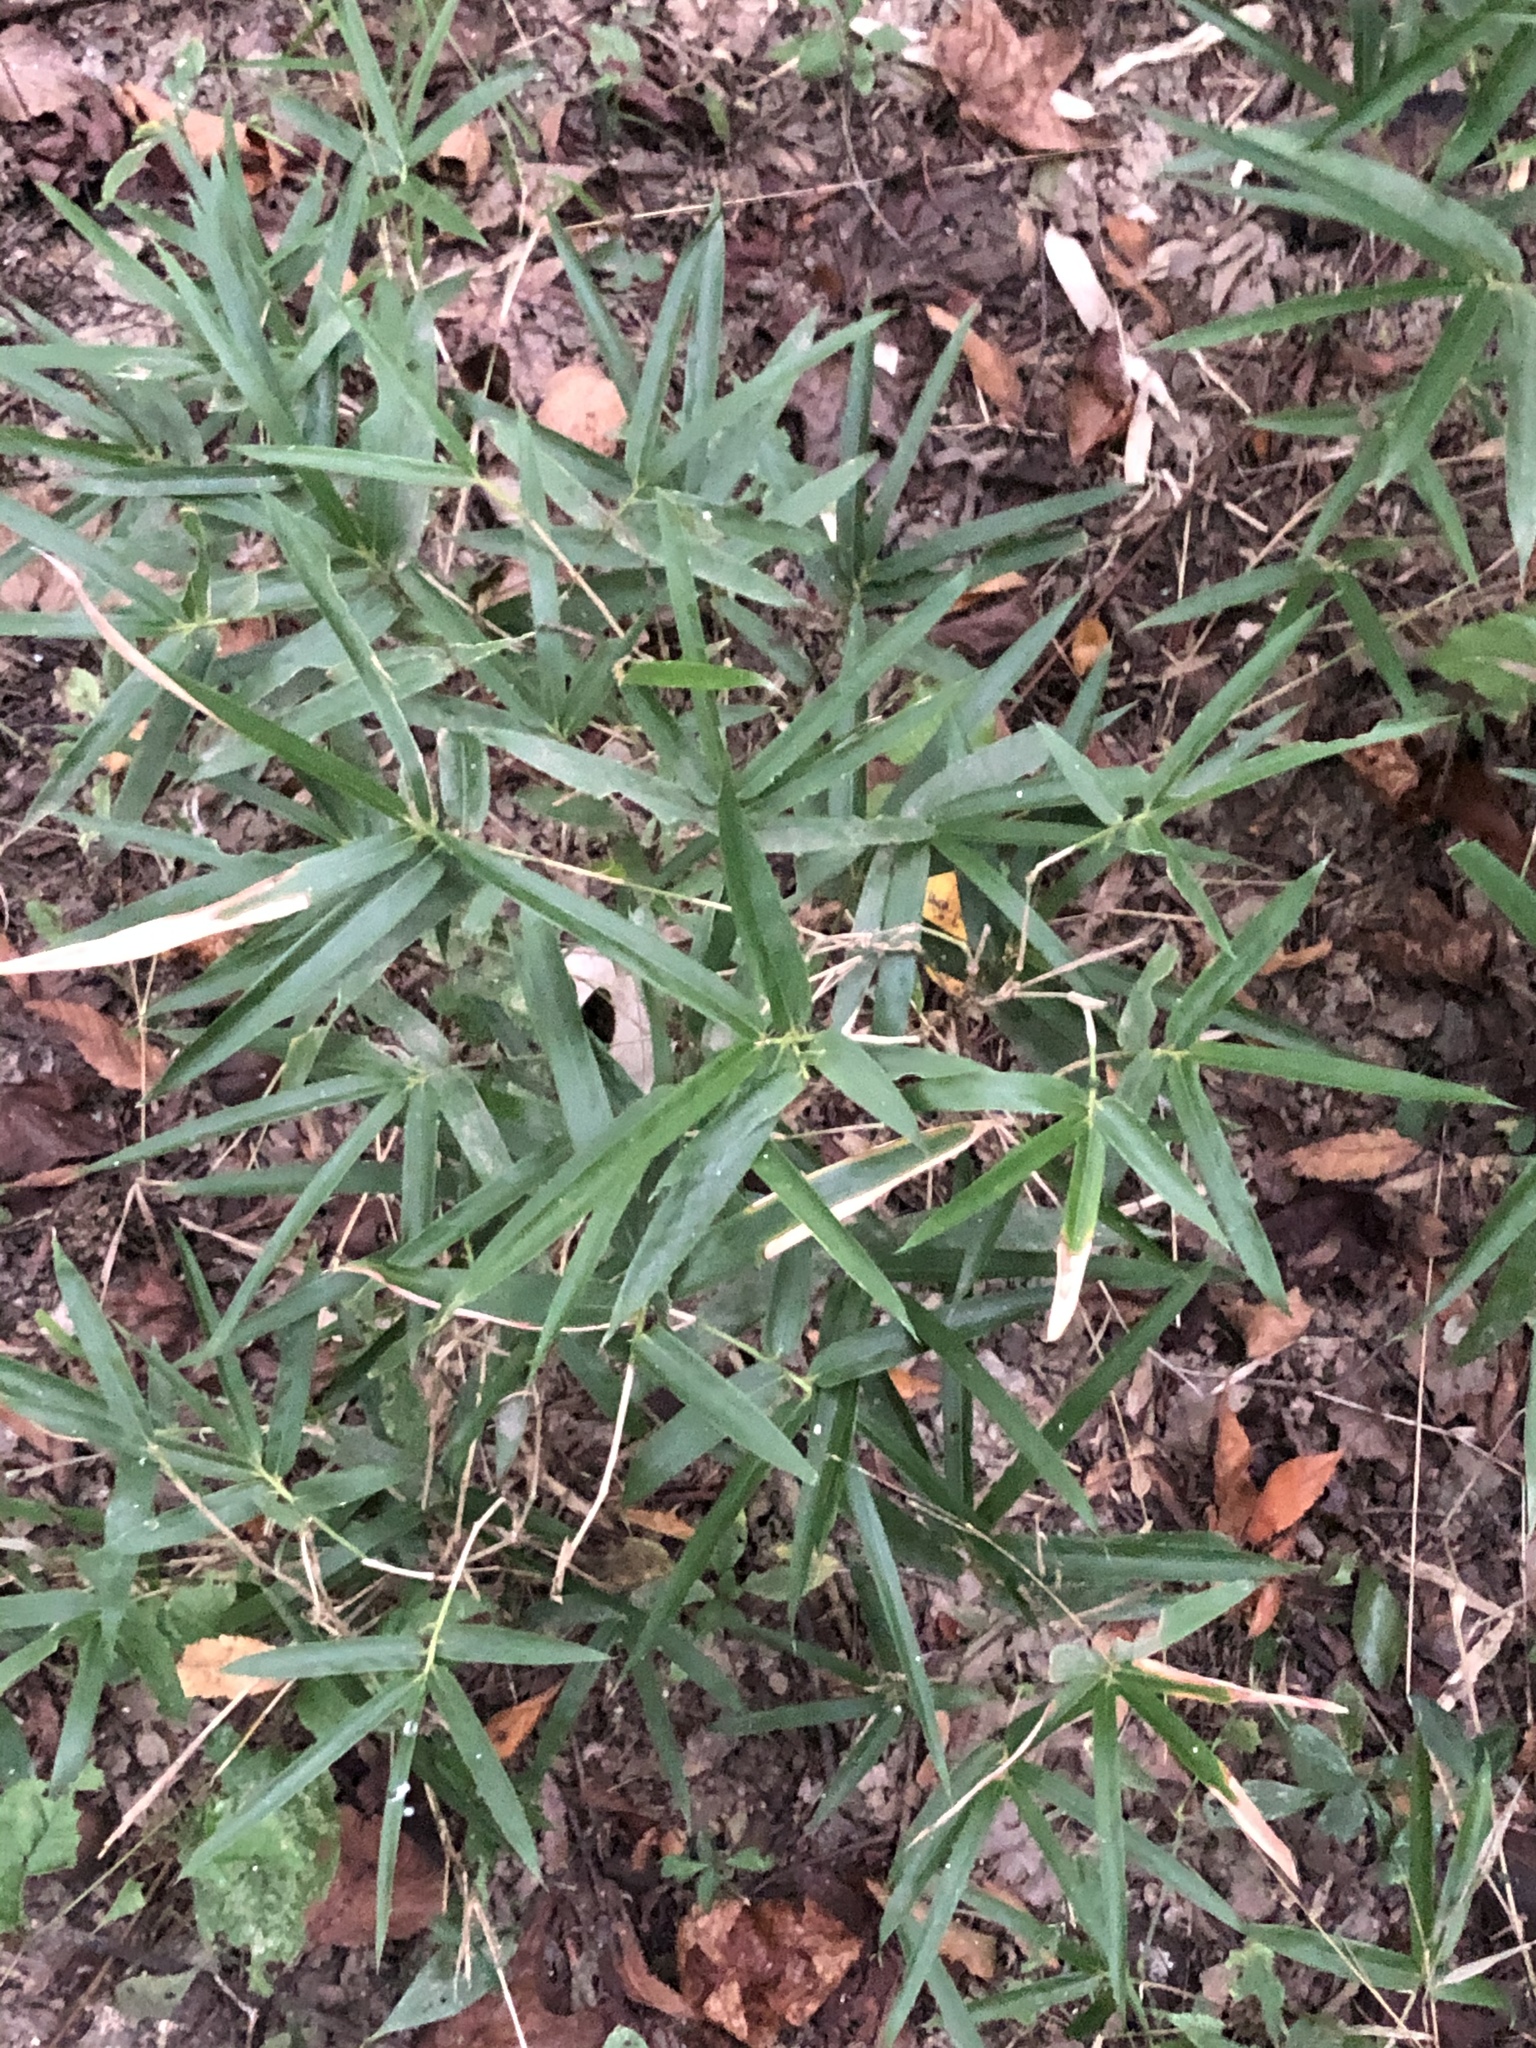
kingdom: Plantae
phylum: Tracheophyta
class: Liliopsida
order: Poales
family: Poaceae
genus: Arundinaria
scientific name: Arundinaria gigantea
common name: Giant cane
